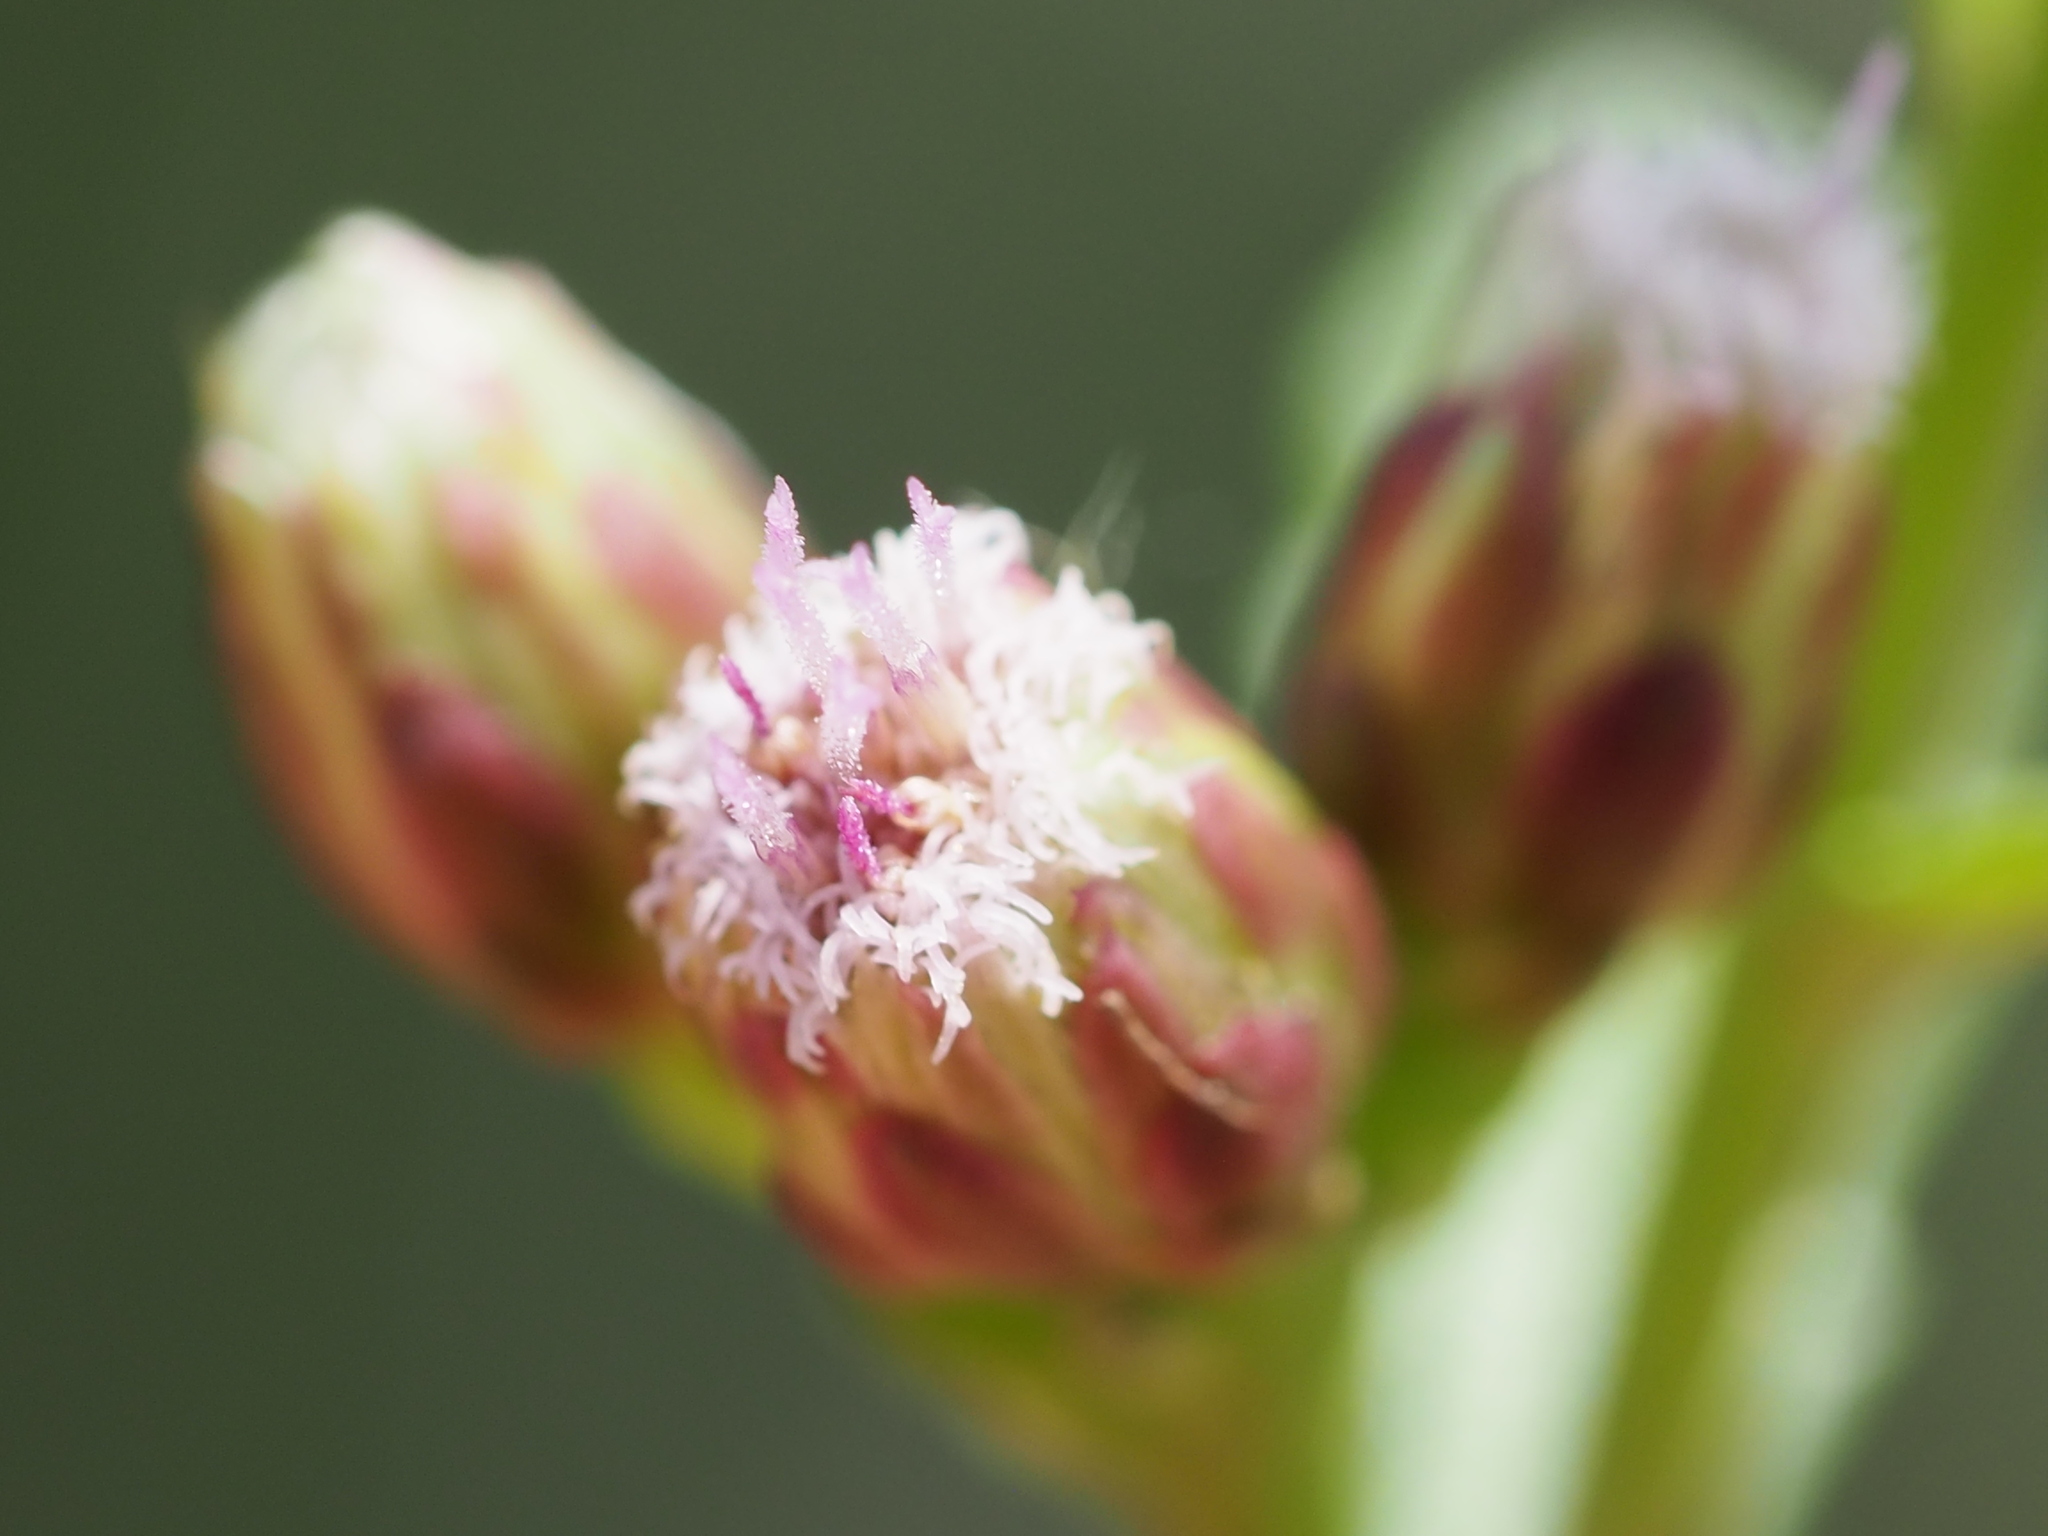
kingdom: Plantae
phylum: Tracheophyta
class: Magnoliopsida
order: Asterales
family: Asteraceae
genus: Pluchea
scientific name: Pluchea pteropoda
